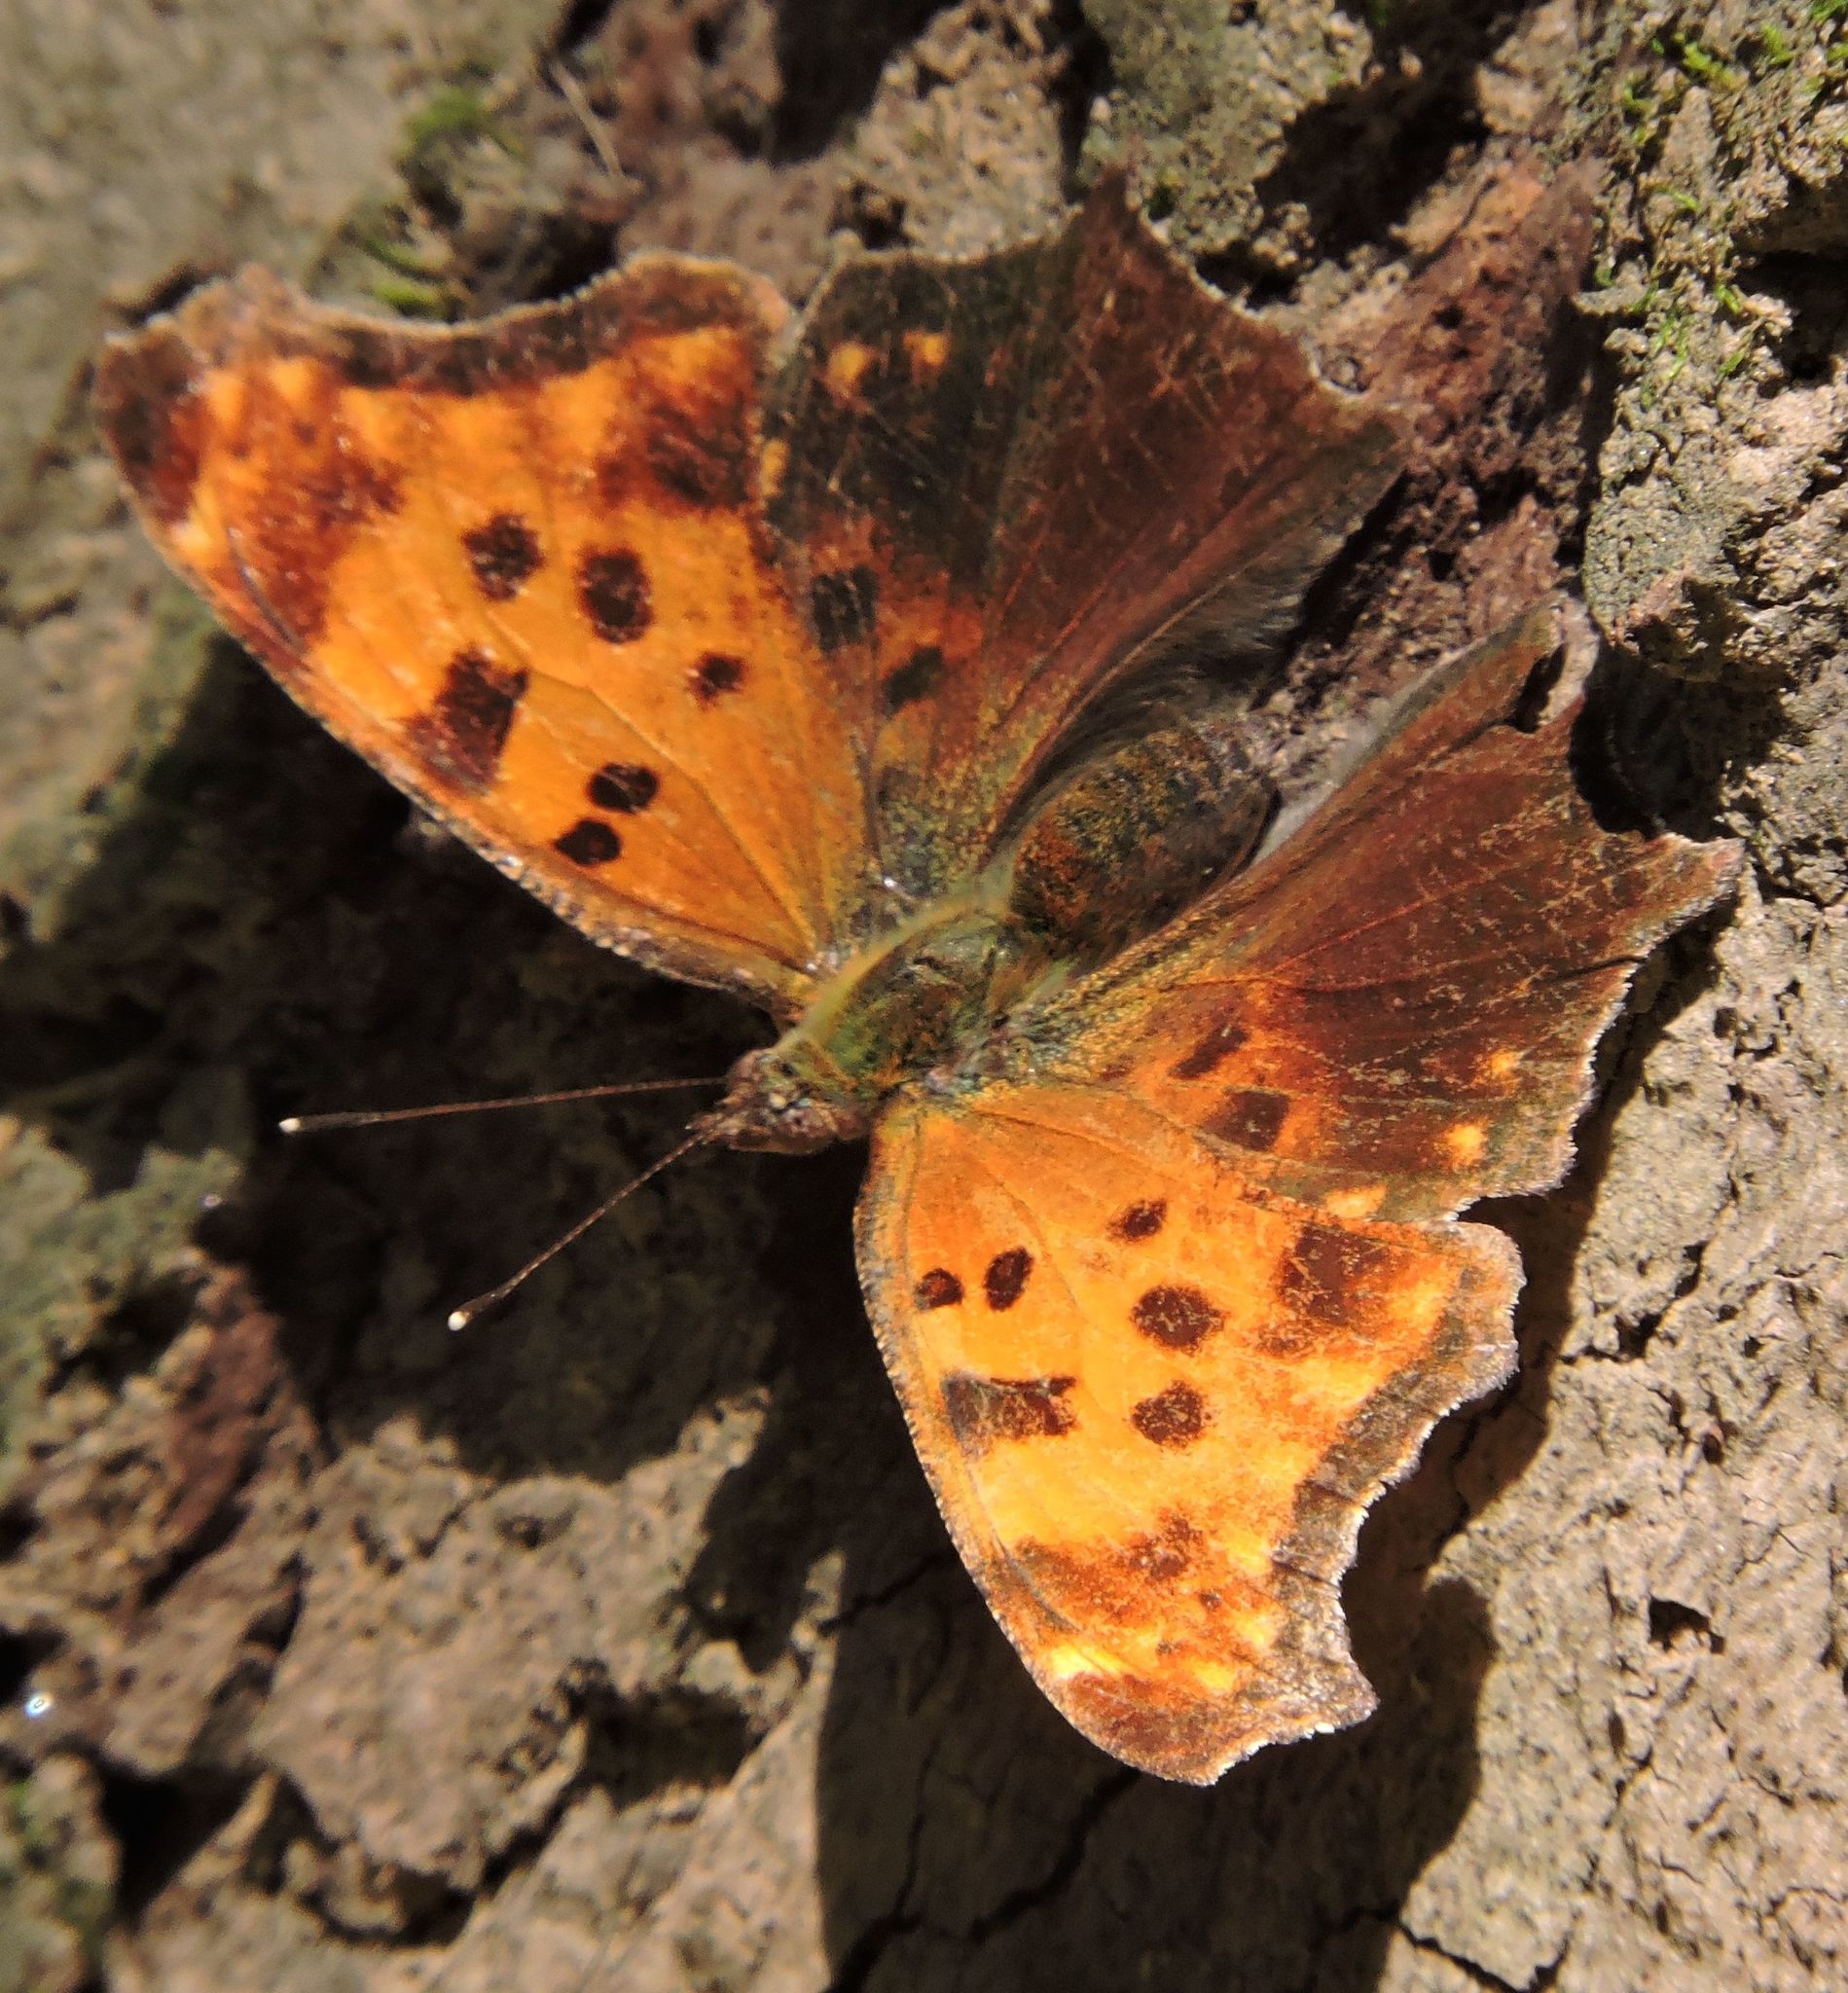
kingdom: Animalia
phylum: Arthropoda
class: Insecta
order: Lepidoptera
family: Nymphalidae
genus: Polygonia
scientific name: Polygonia comma
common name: Eastern comma
